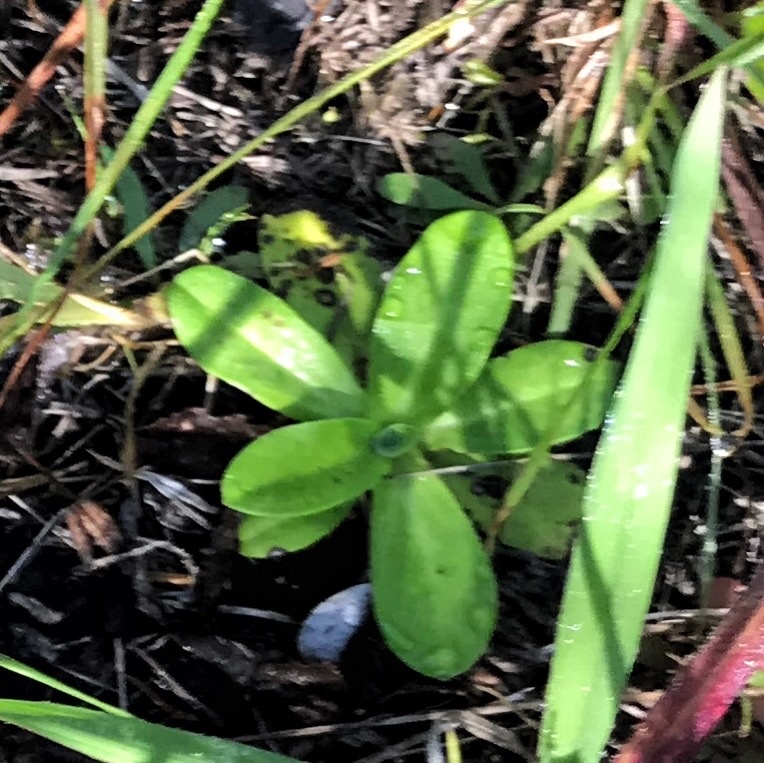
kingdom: Plantae
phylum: Tracheophyta
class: Magnoliopsida
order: Asterales
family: Campanulaceae
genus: Wimmerella
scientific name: Wimmerella arabidea
